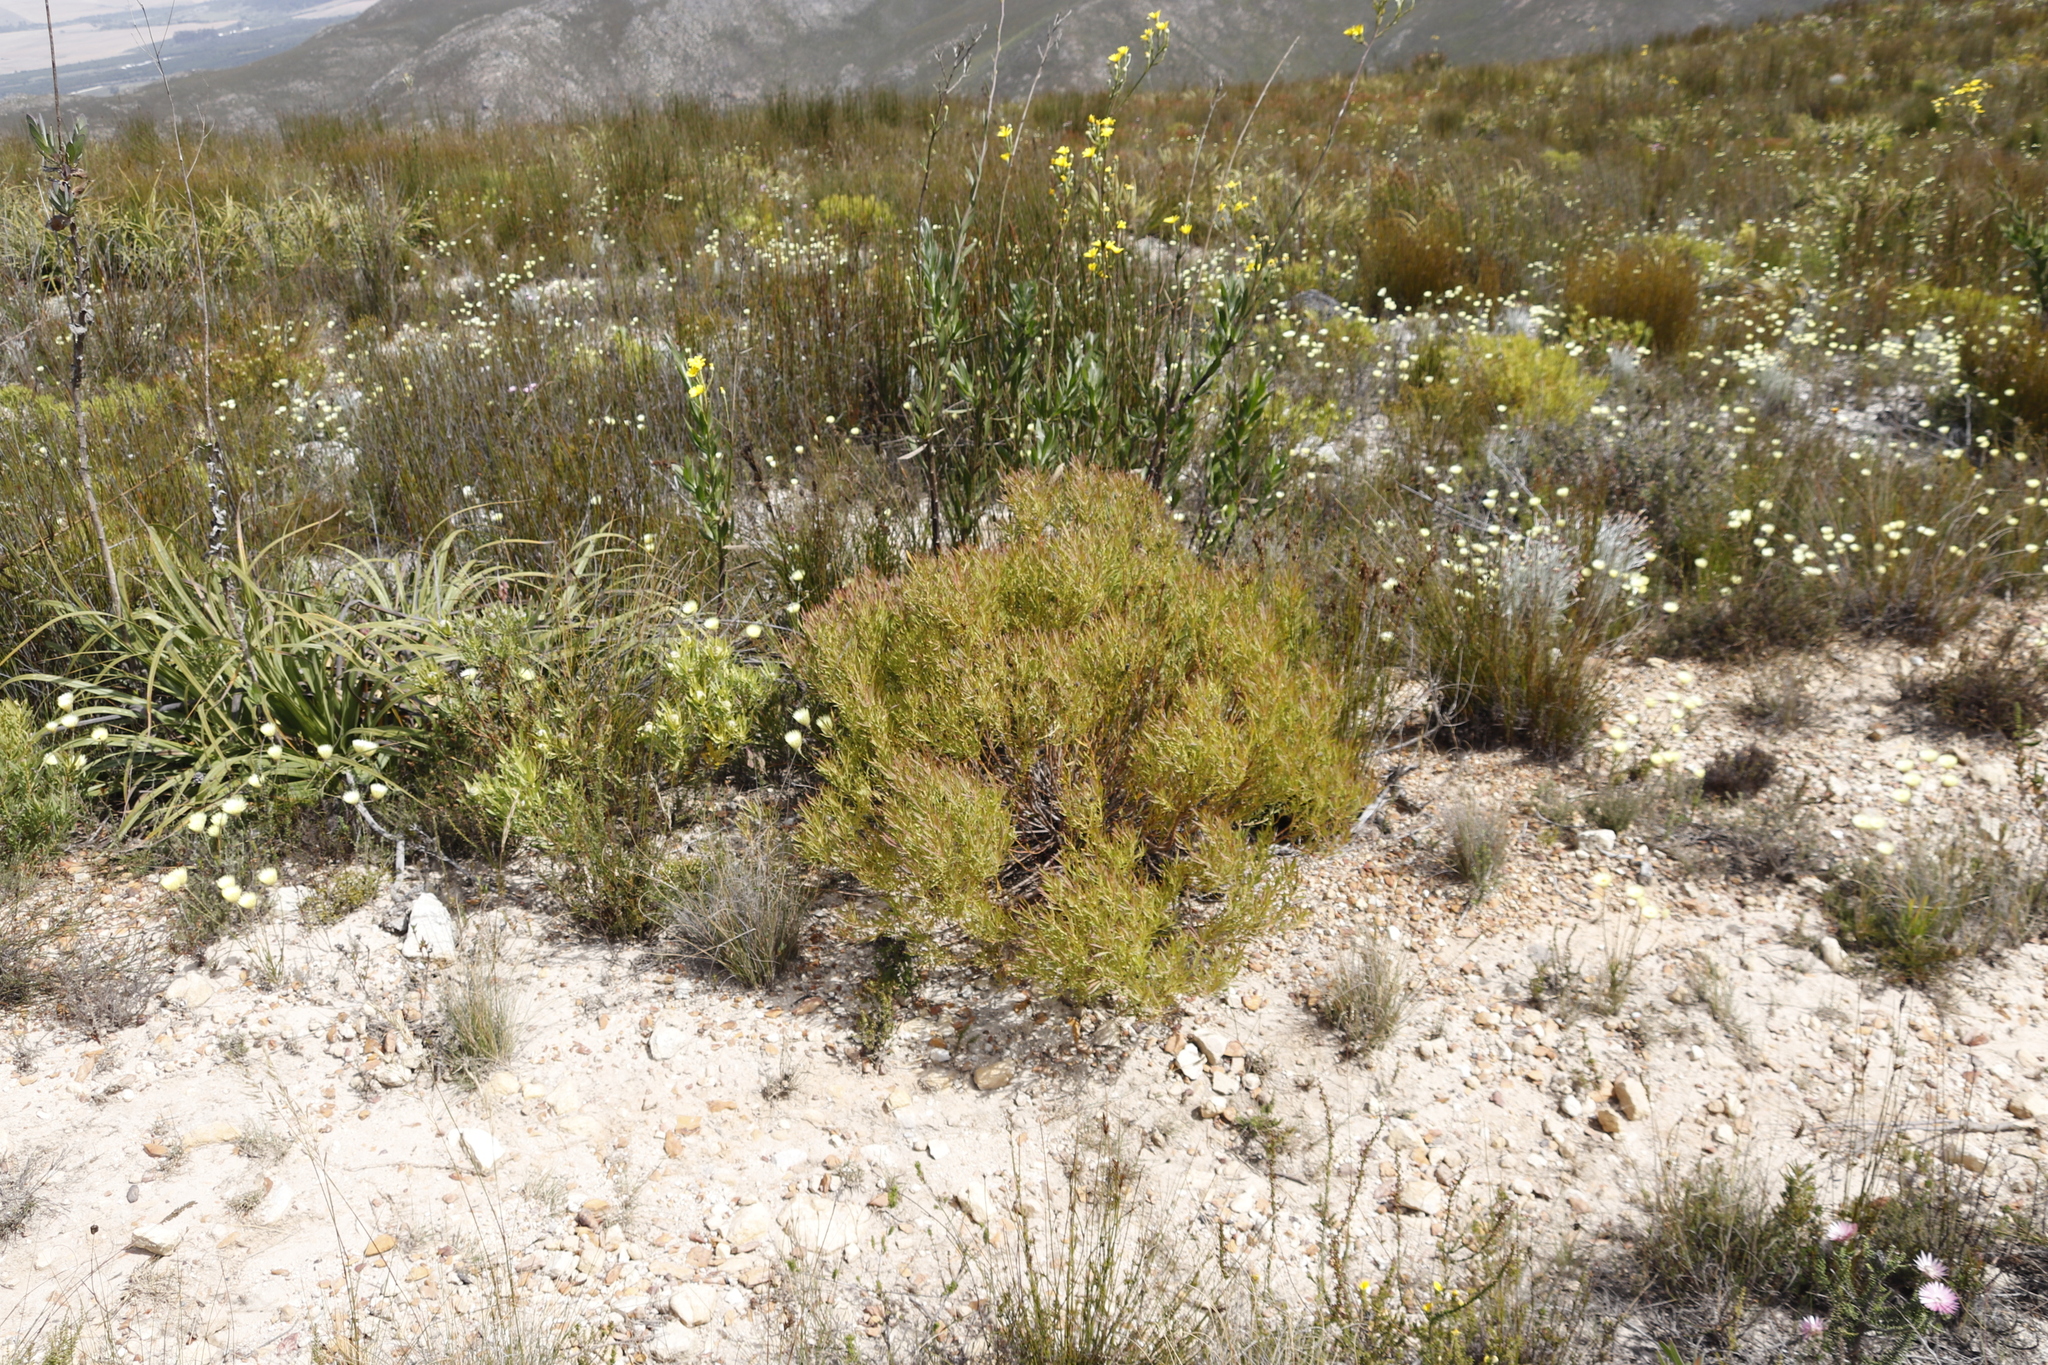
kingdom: Plantae
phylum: Tracheophyta
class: Magnoliopsida
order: Proteales
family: Proteaceae
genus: Leucadendron
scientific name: Leucadendron salignum
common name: Common sunshine conebush
